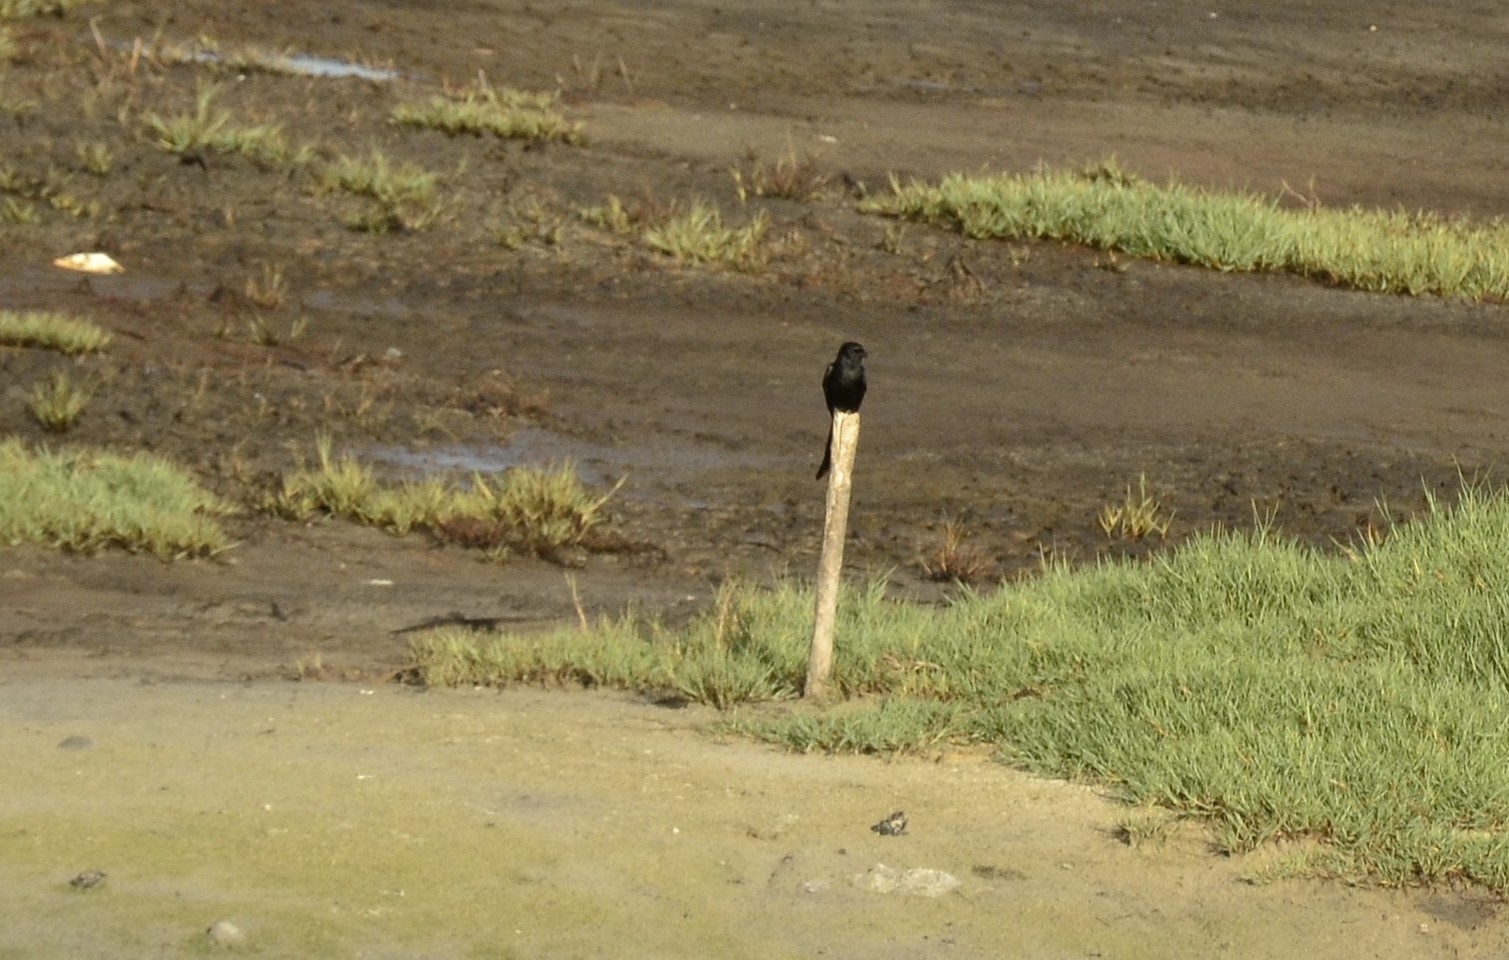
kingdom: Animalia
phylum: Chordata
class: Aves
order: Passeriformes
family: Dicruridae
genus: Dicrurus
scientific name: Dicrurus macrocercus
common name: Black drongo
